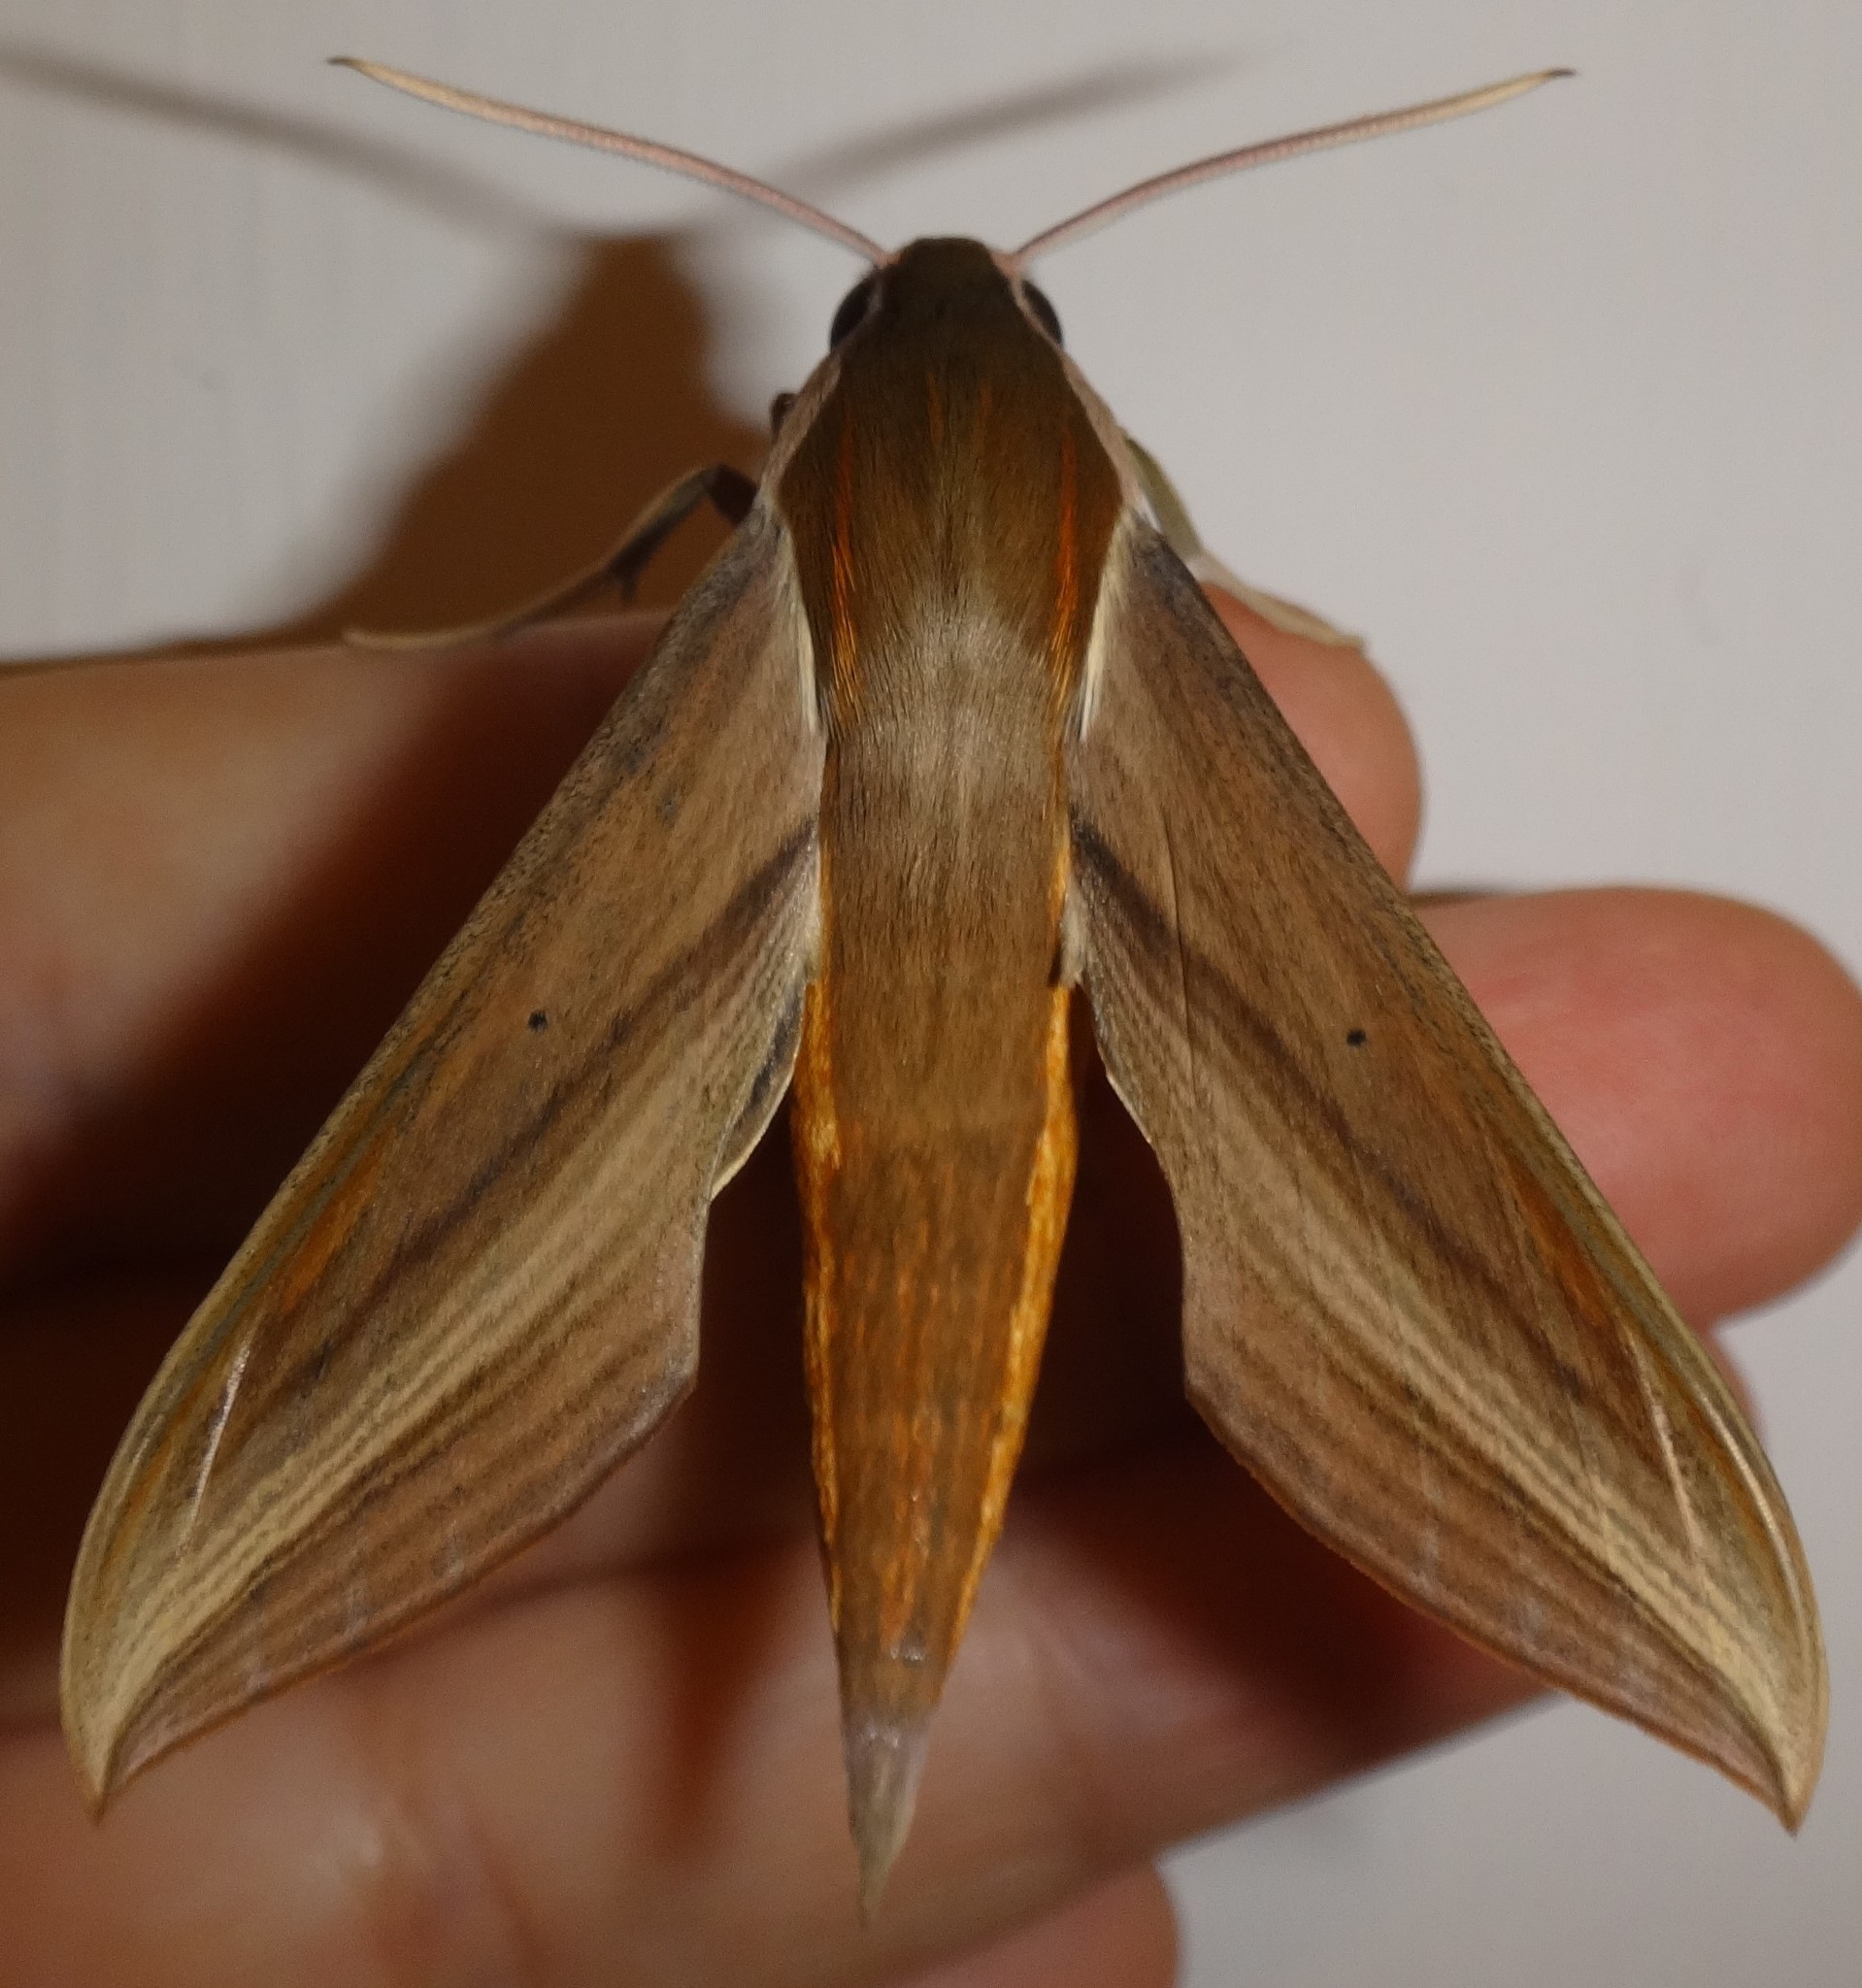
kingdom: Animalia
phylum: Arthropoda
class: Insecta
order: Lepidoptera
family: Sphingidae
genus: Xylophanes
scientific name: Xylophanes tersa
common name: Tersa sphinx
